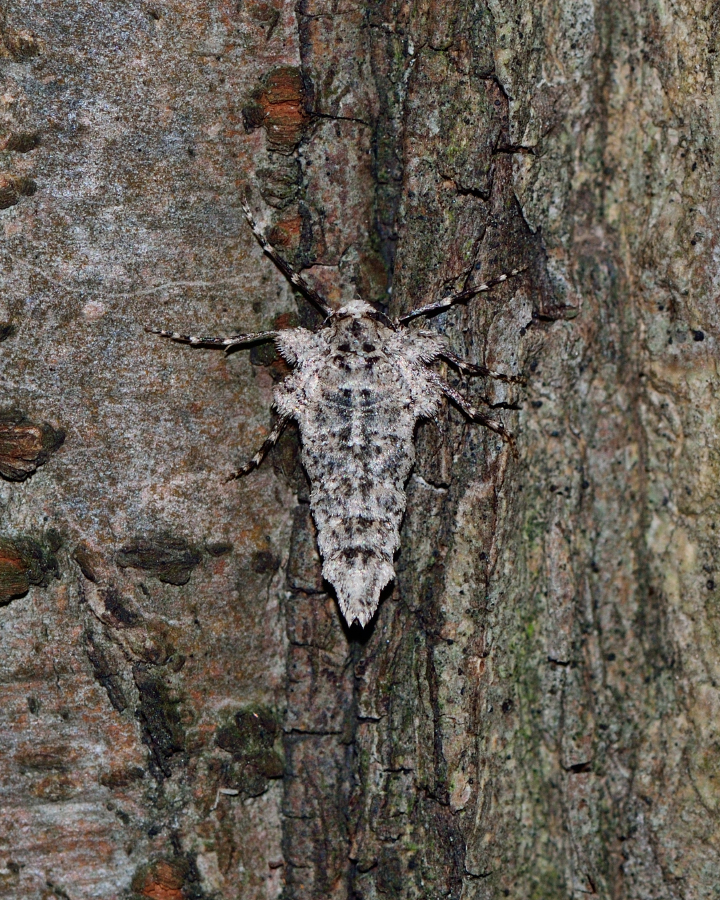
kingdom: Animalia
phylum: Arthropoda
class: Insecta
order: Lepidoptera
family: Geometridae
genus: Larerannis
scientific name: Larerannis orthogrammaria
